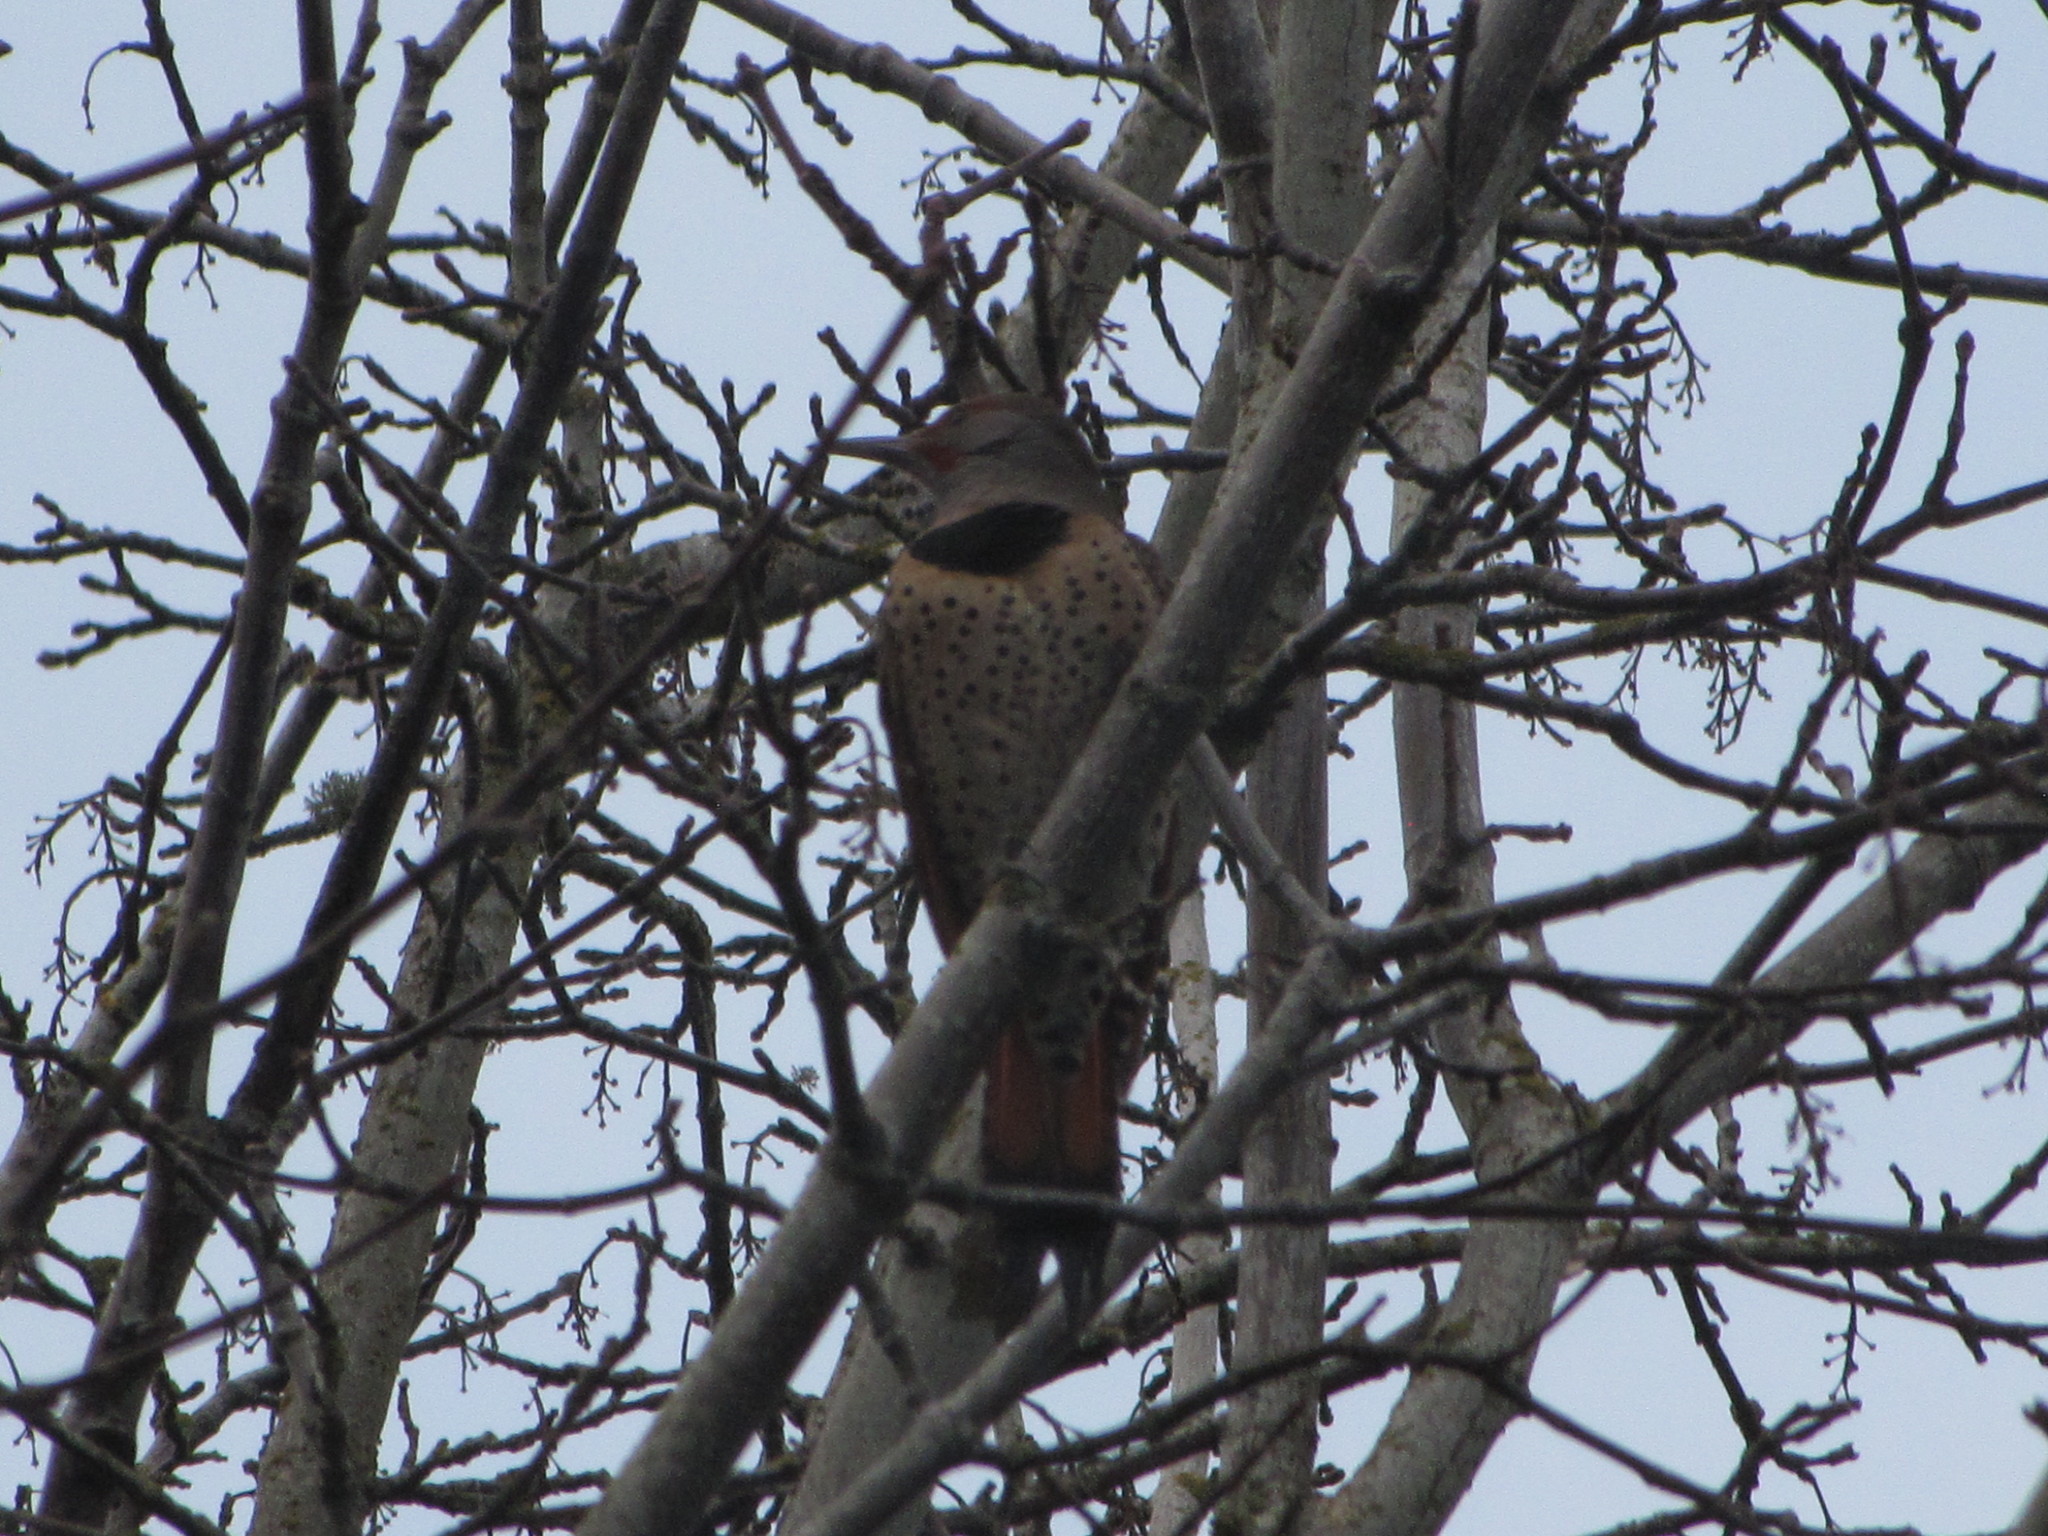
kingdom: Animalia
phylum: Chordata
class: Aves
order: Piciformes
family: Picidae
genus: Colaptes
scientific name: Colaptes auratus
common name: Northern flicker
